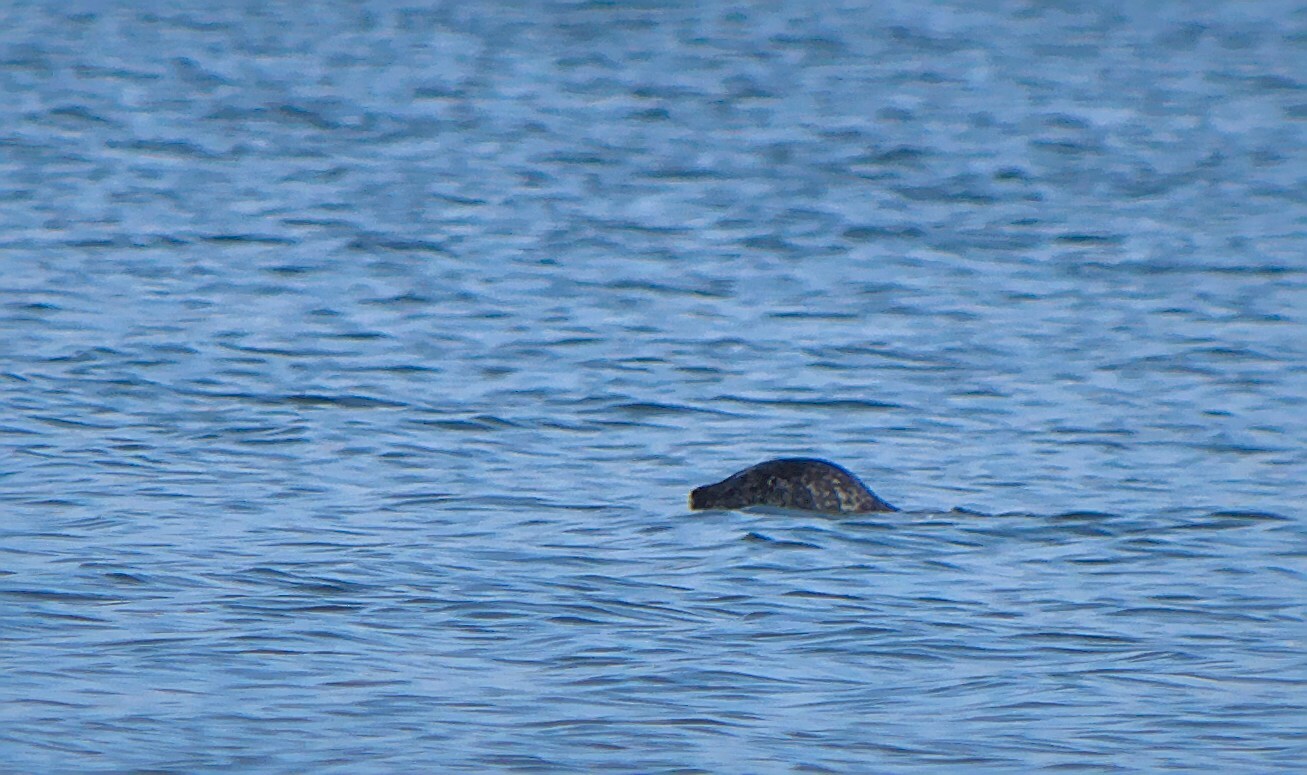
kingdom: Animalia
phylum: Chordata
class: Mammalia
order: Carnivora
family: Phocidae
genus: Phoca
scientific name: Phoca vitulina
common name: Harbor seal
